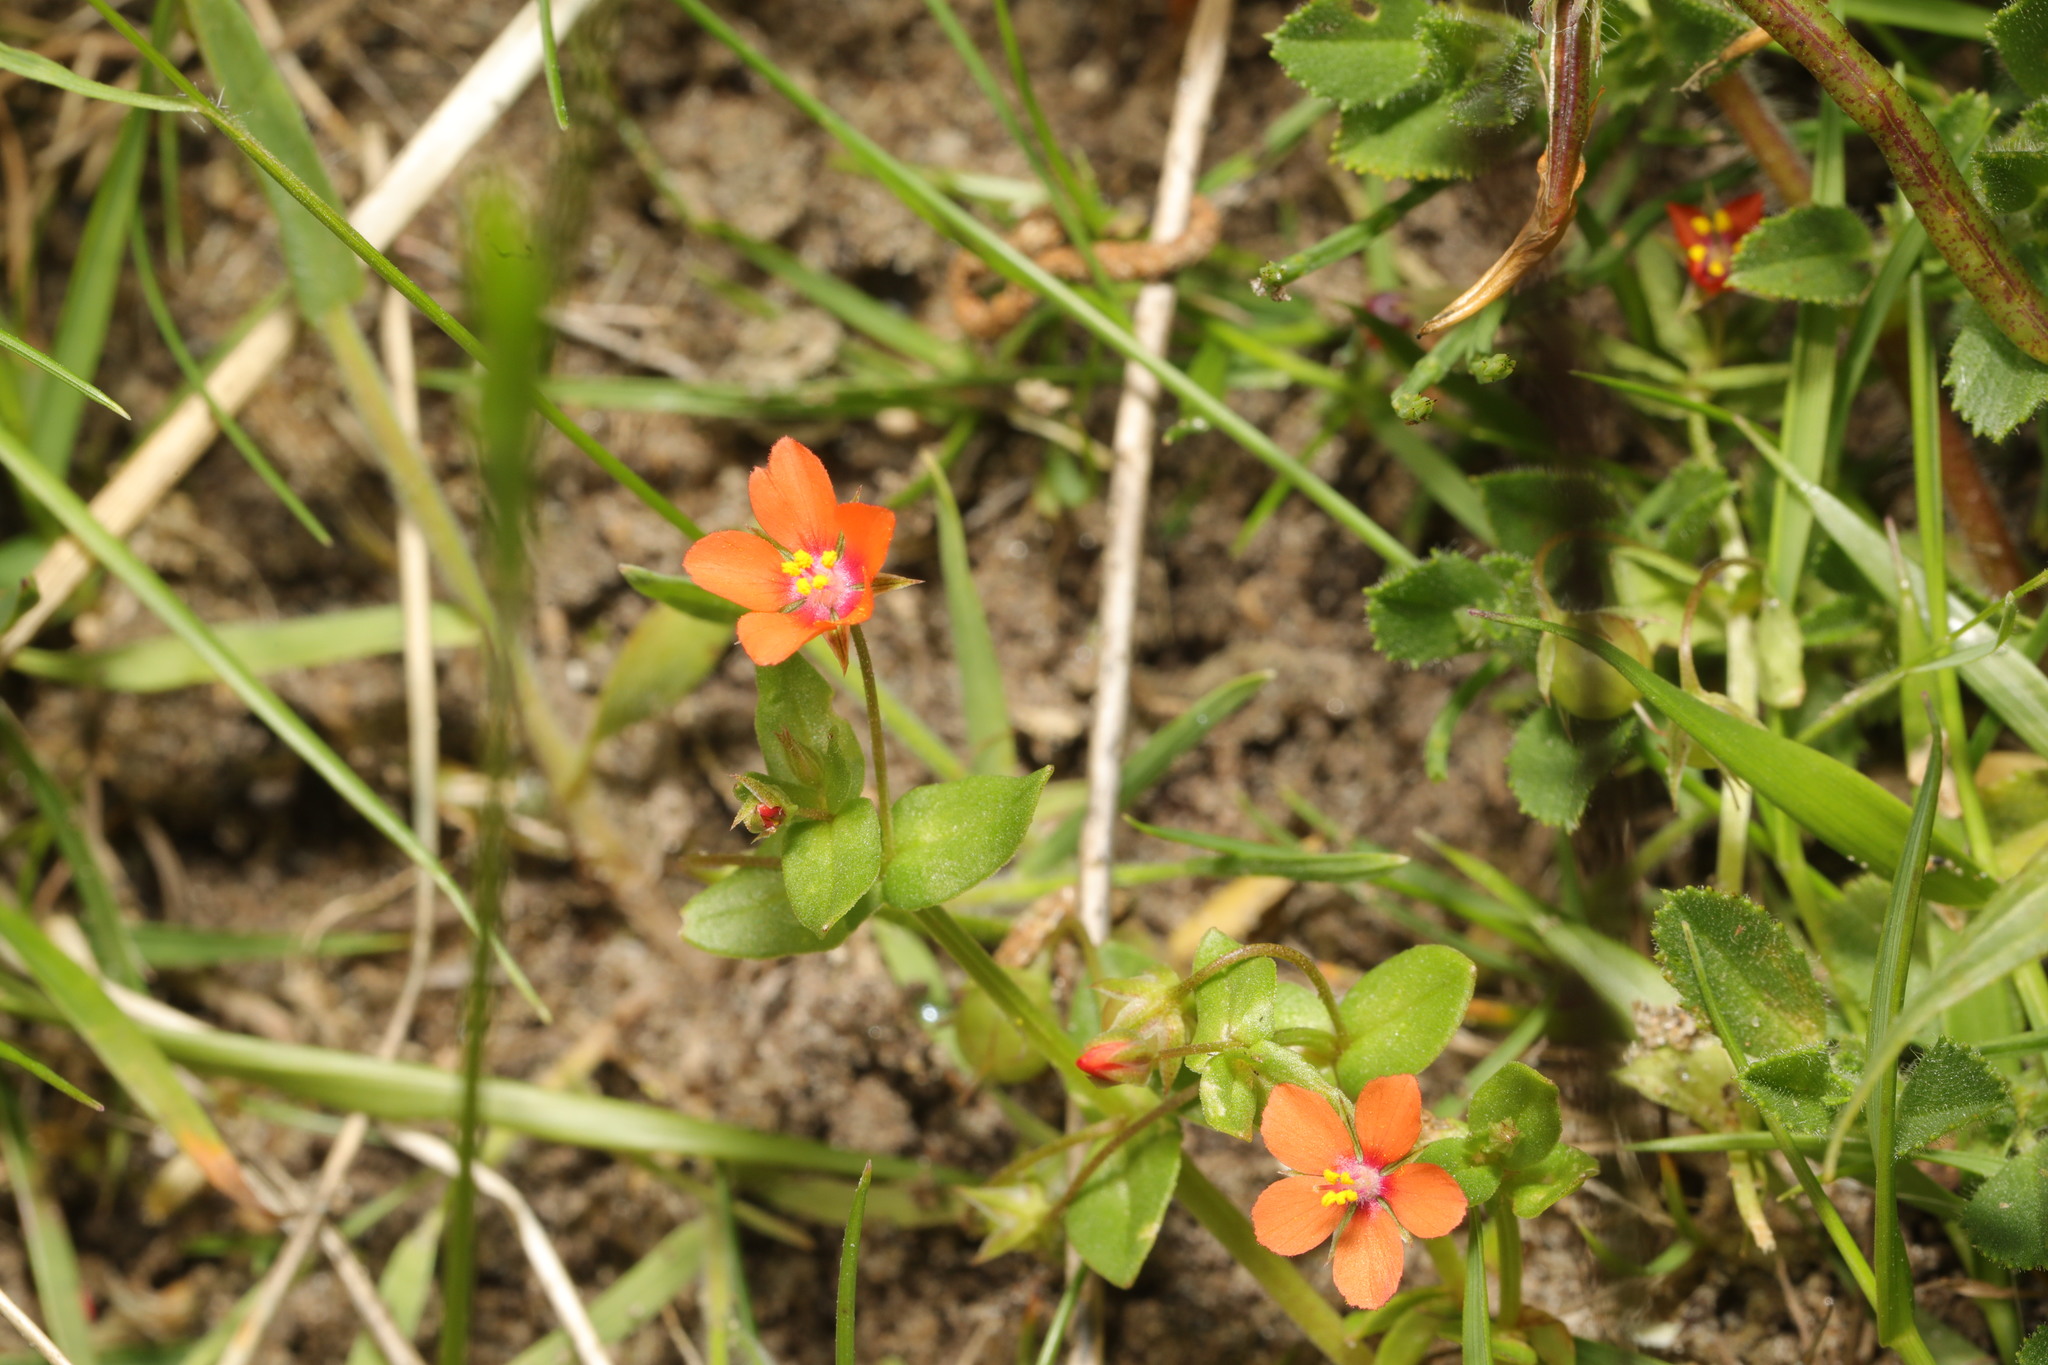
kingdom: Plantae
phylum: Tracheophyta
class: Magnoliopsida
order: Ericales
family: Primulaceae
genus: Lysimachia
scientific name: Lysimachia arvensis
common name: Scarlet pimpernel
